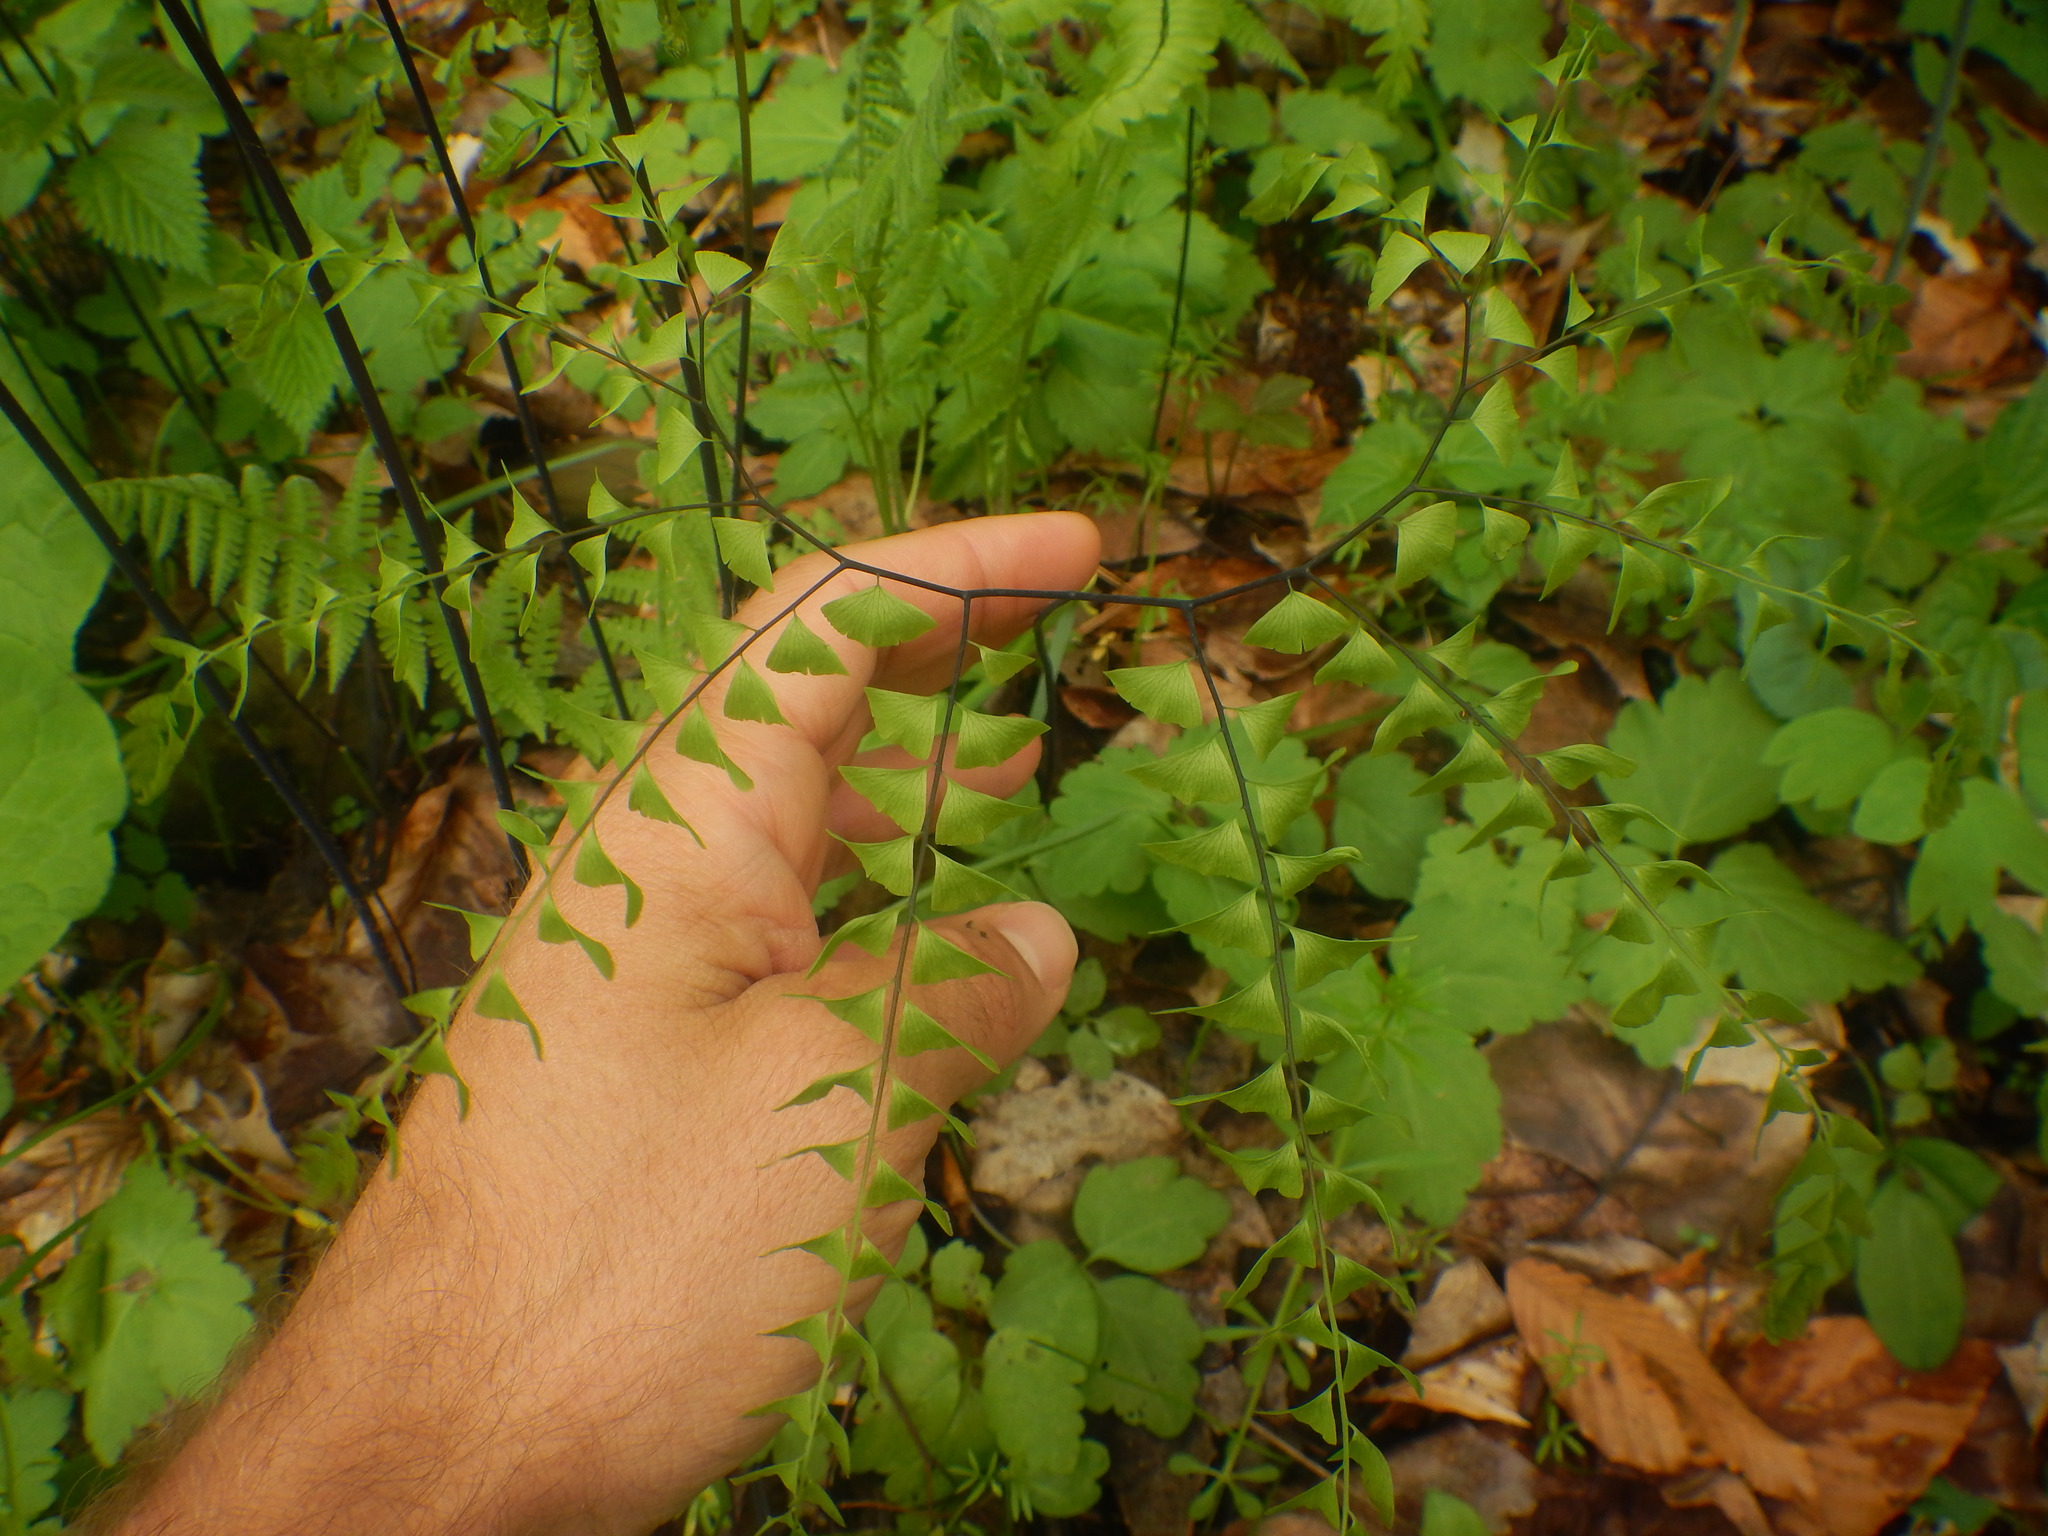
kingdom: Plantae
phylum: Tracheophyta
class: Polypodiopsida
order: Polypodiales
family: Pteridaceae
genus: Adiantum
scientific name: Adiantum pedatum
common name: Five-finger fern
